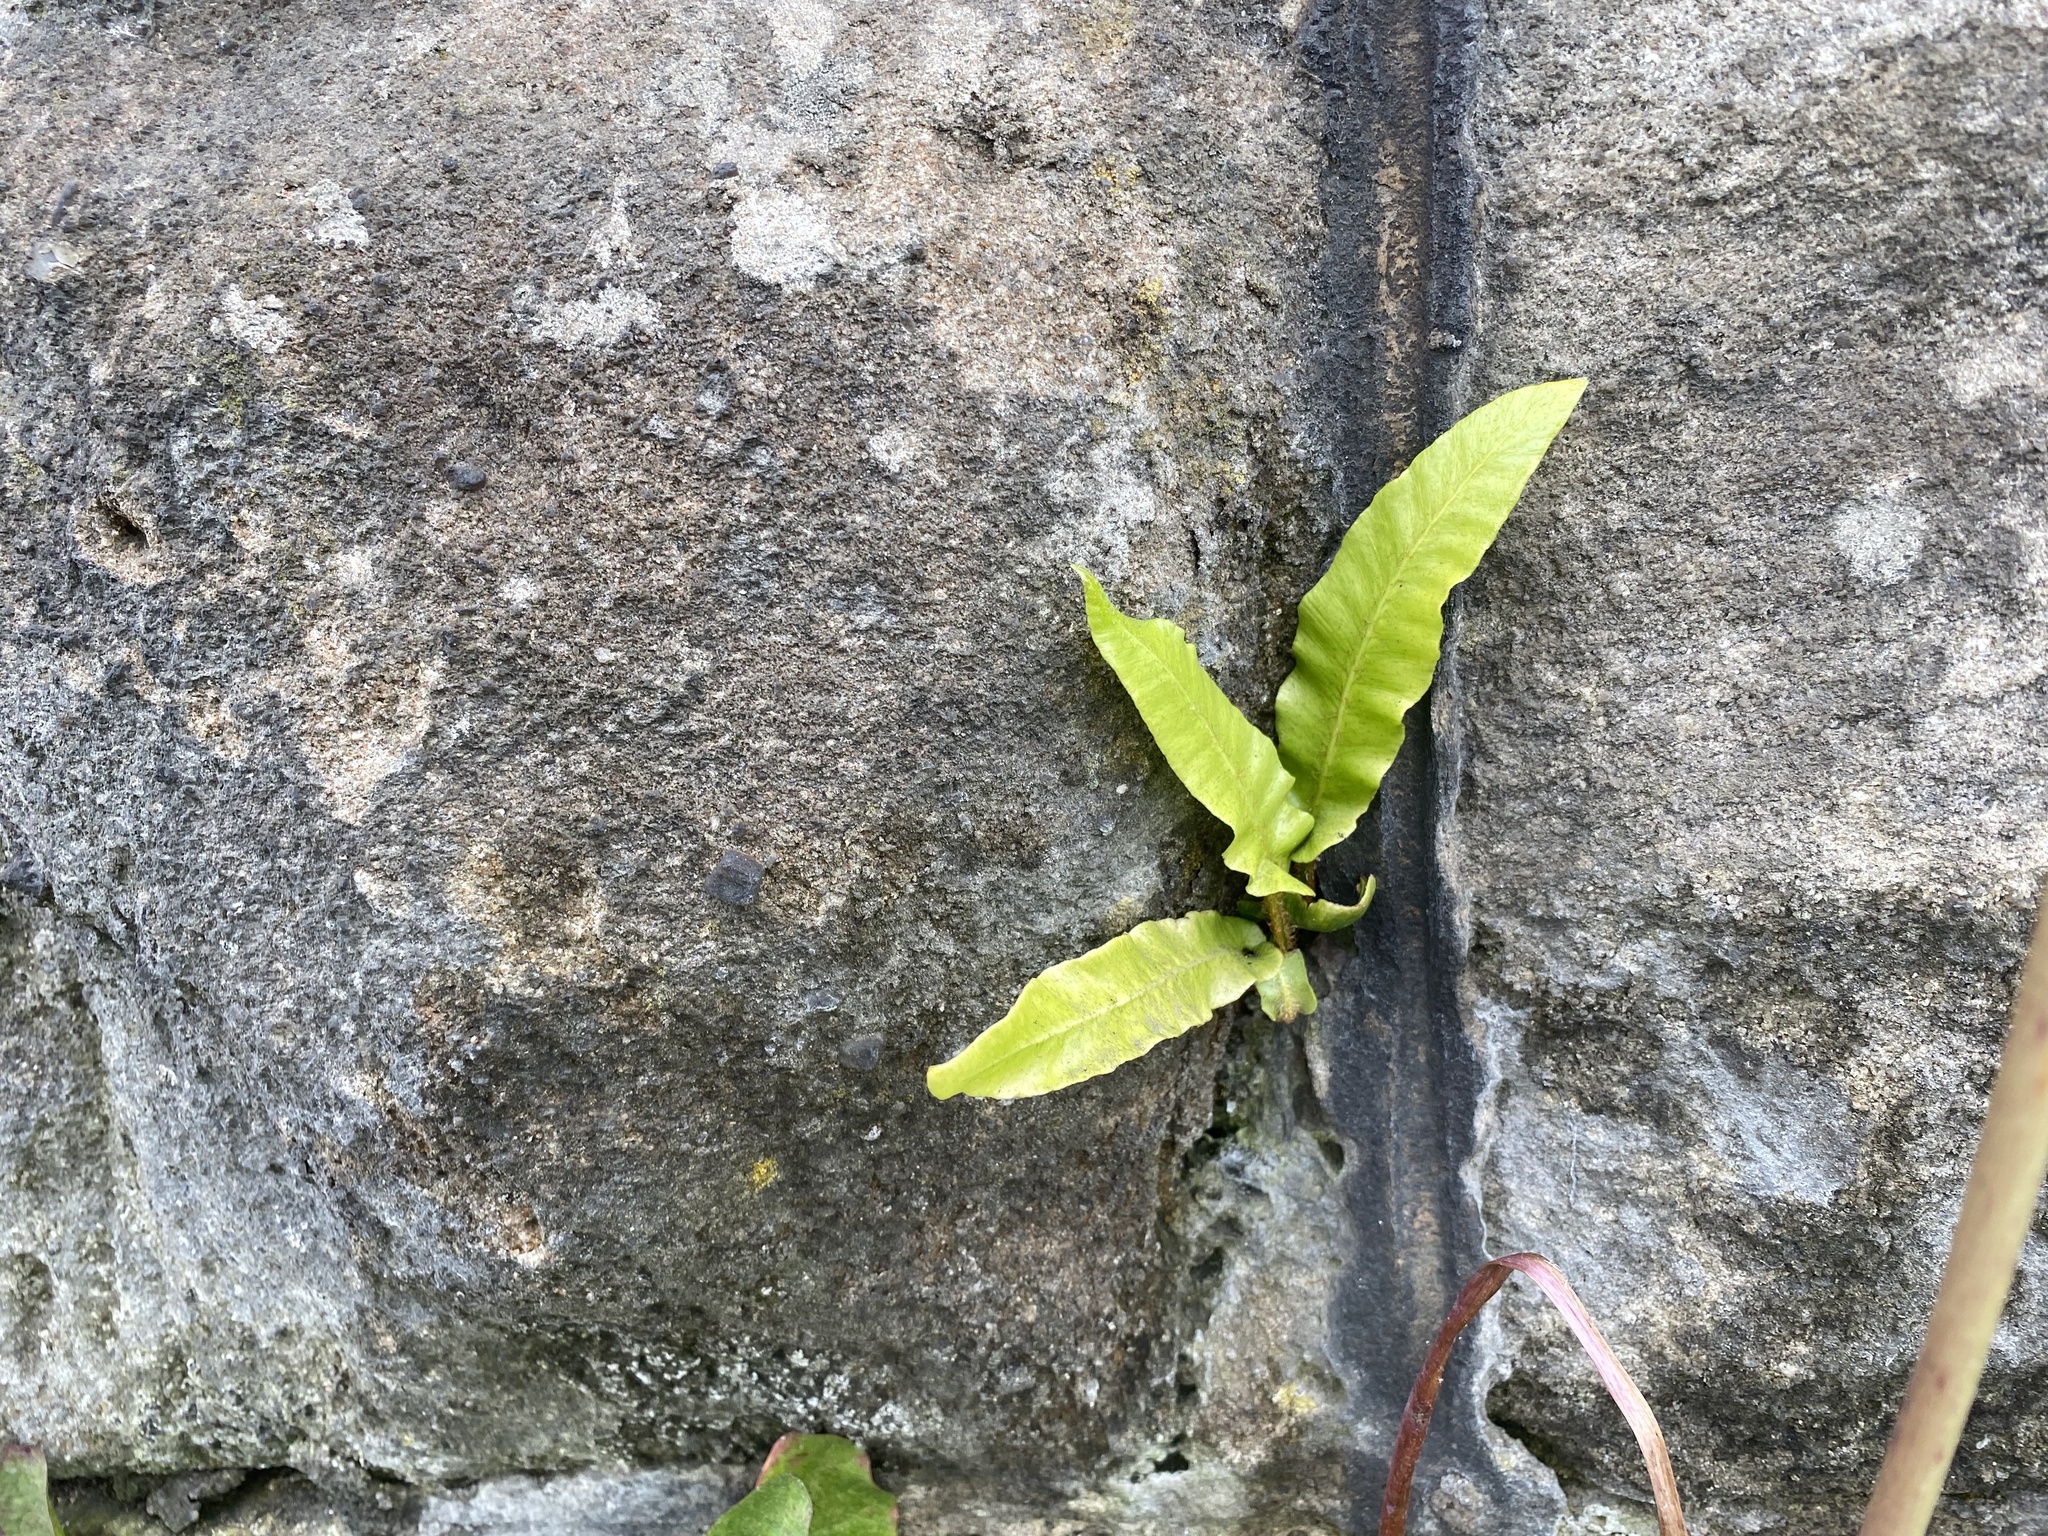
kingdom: Plantae
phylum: Tracheophyta
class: Polypodiopsida
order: Polypodiales
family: Aspleniaceae
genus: Asplenium
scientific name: Asplenium scolopendrium
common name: Hart's-tongue fern
